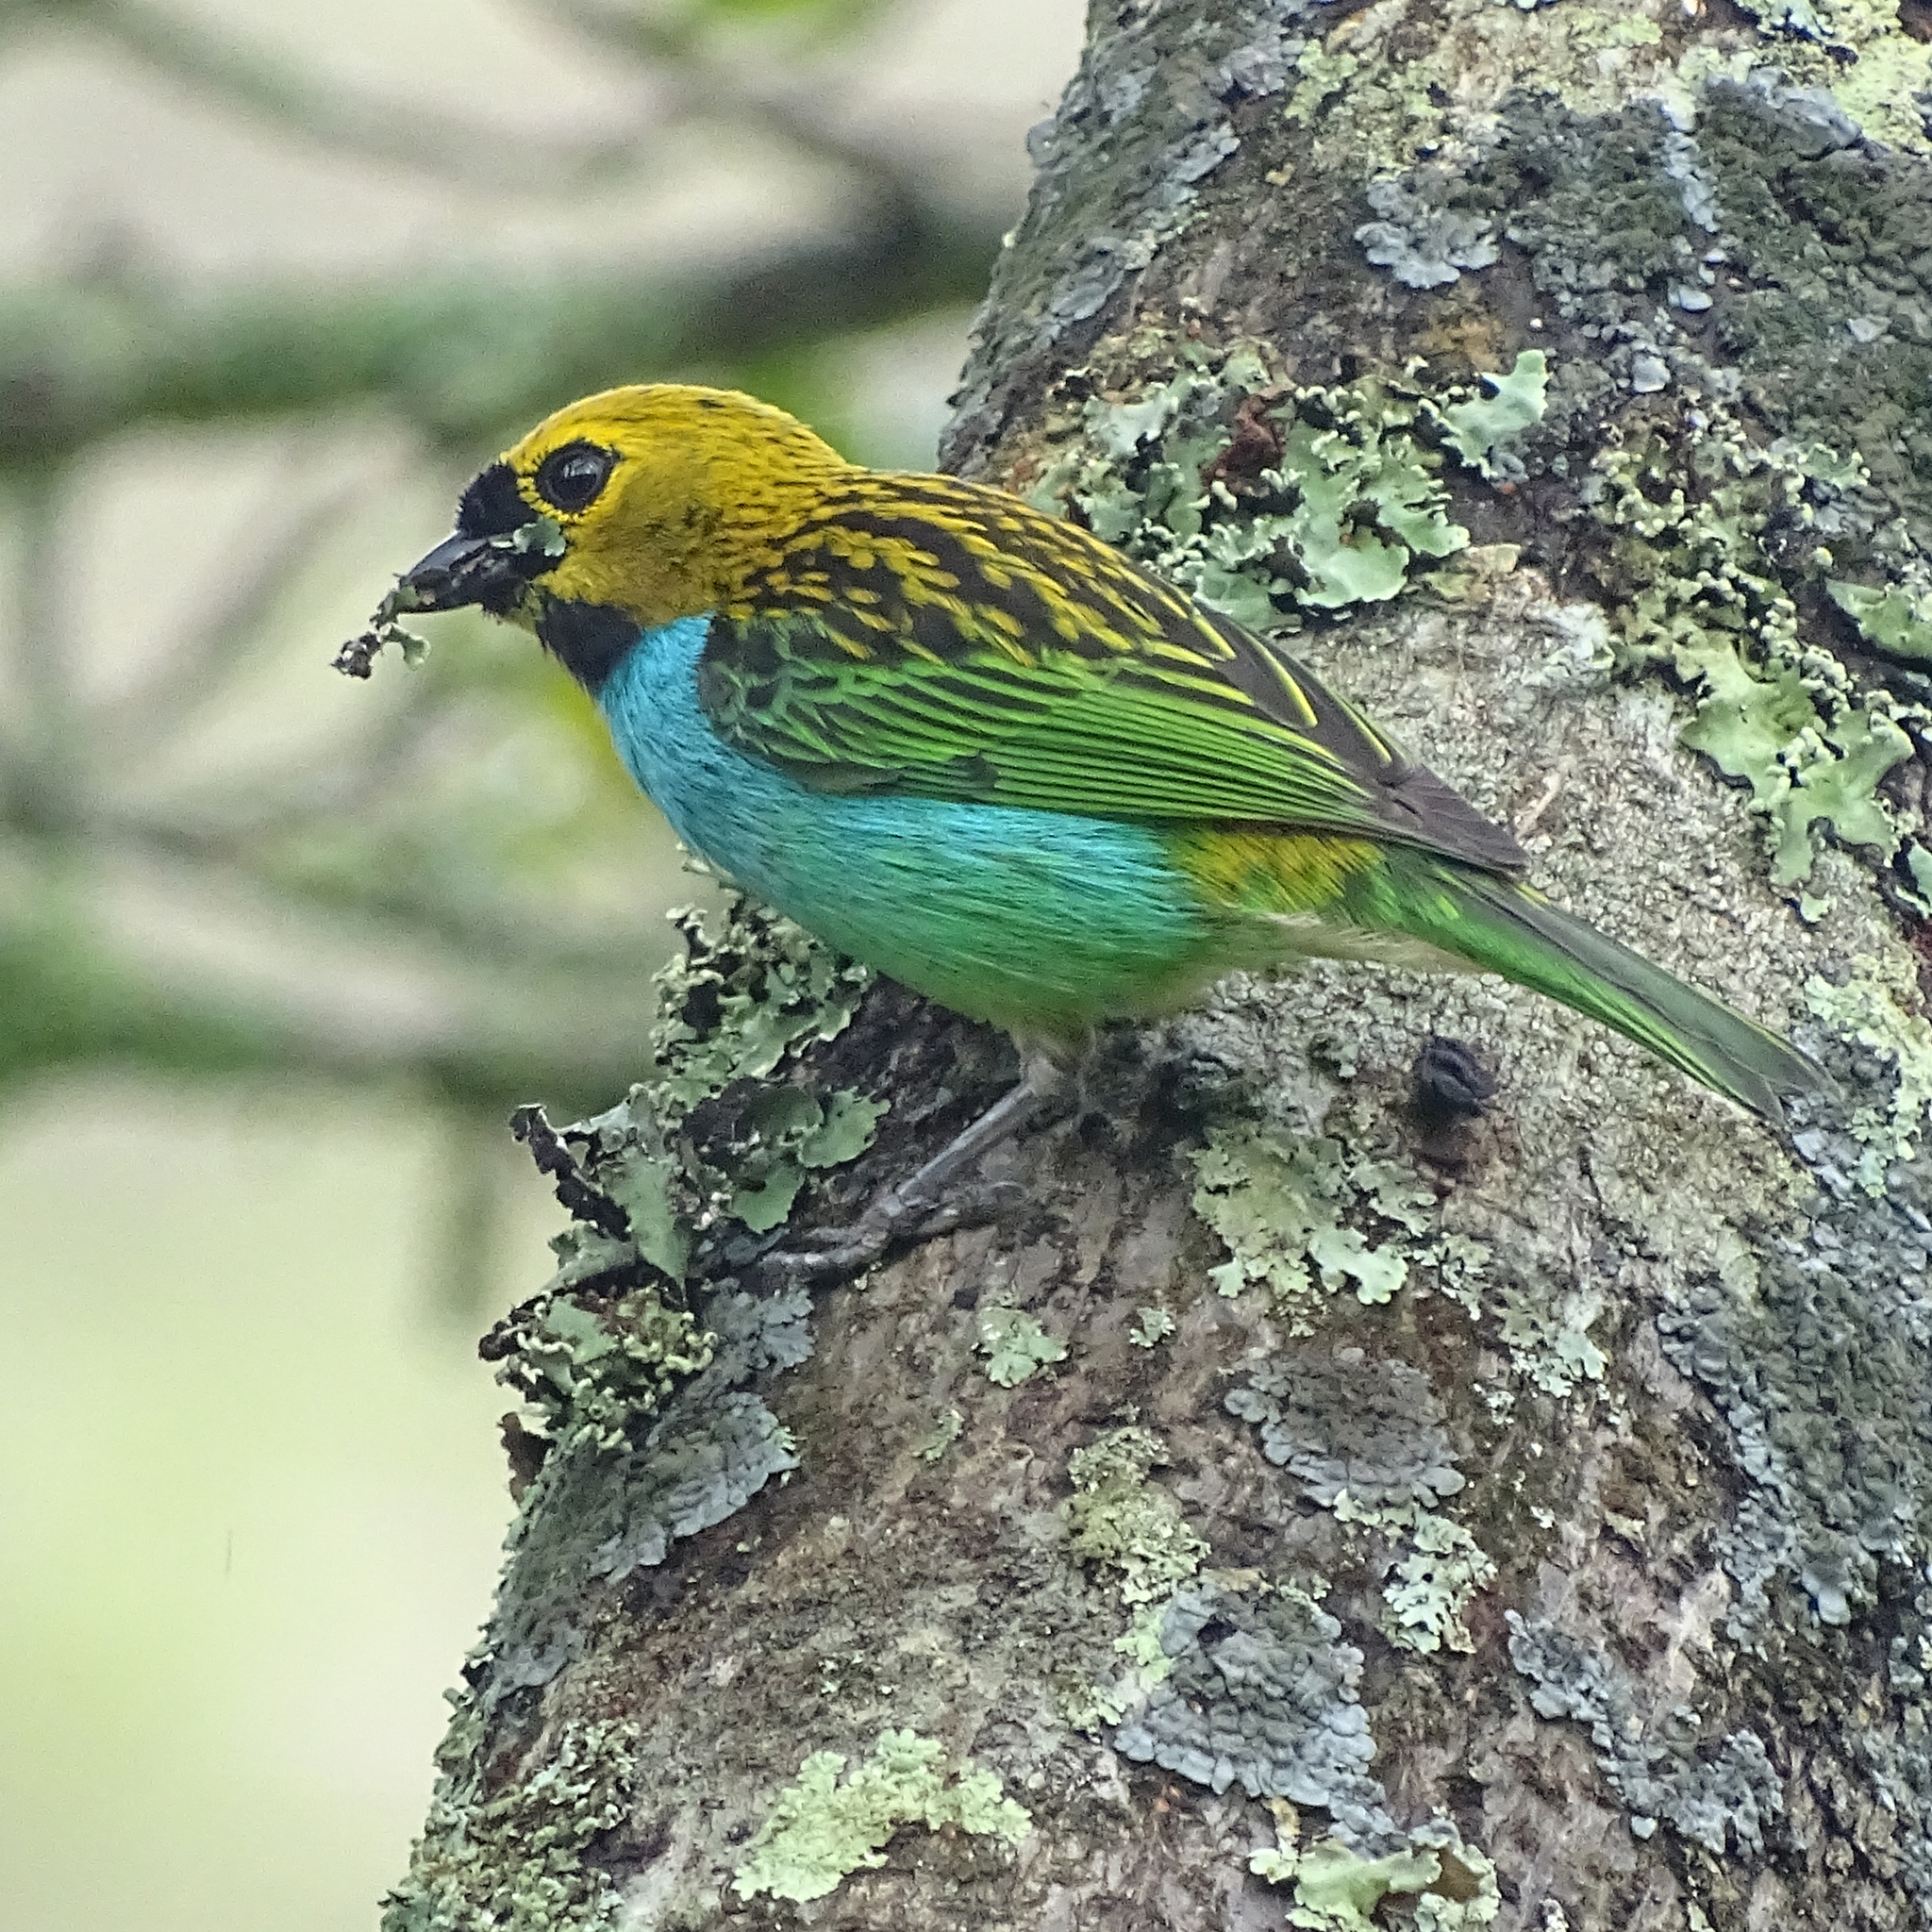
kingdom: Animalia
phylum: Chordata
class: Aves
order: Passeriformes
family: Thraupidae
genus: Tangara
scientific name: Tangara cyanoventris
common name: Gilt-edged tanager
